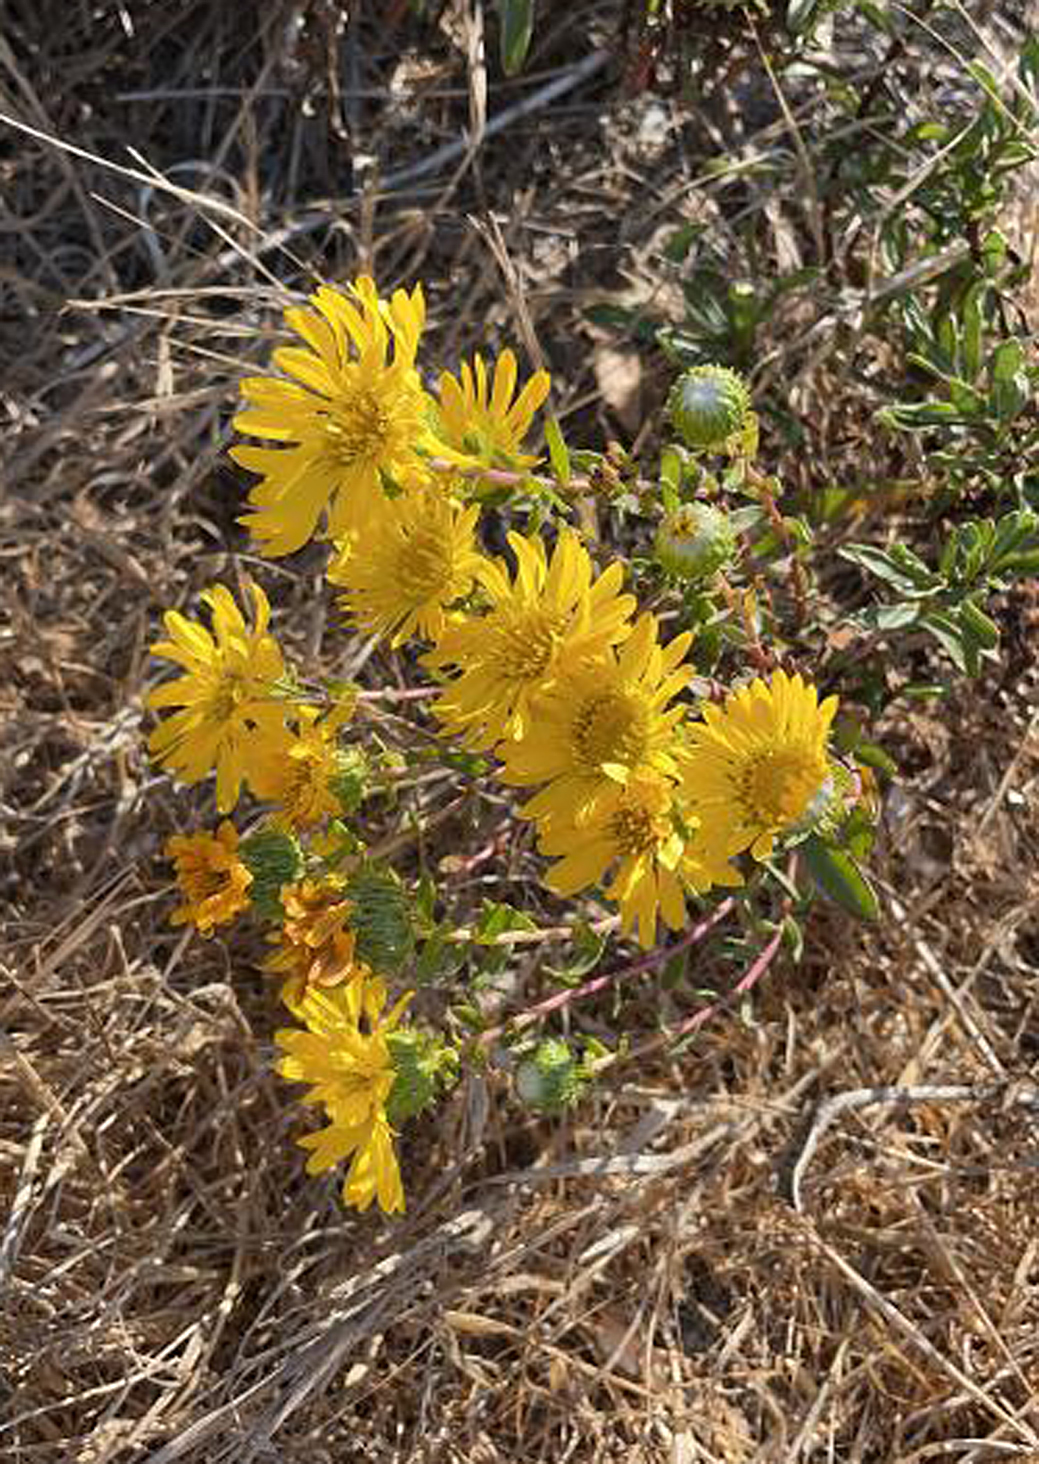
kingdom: Plantae
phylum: Tracheophyta
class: Magnoliopsida
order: Asterales
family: Asteraceae
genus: Grindelia
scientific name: Grindelia hirsutula
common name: Hairy gumweed
